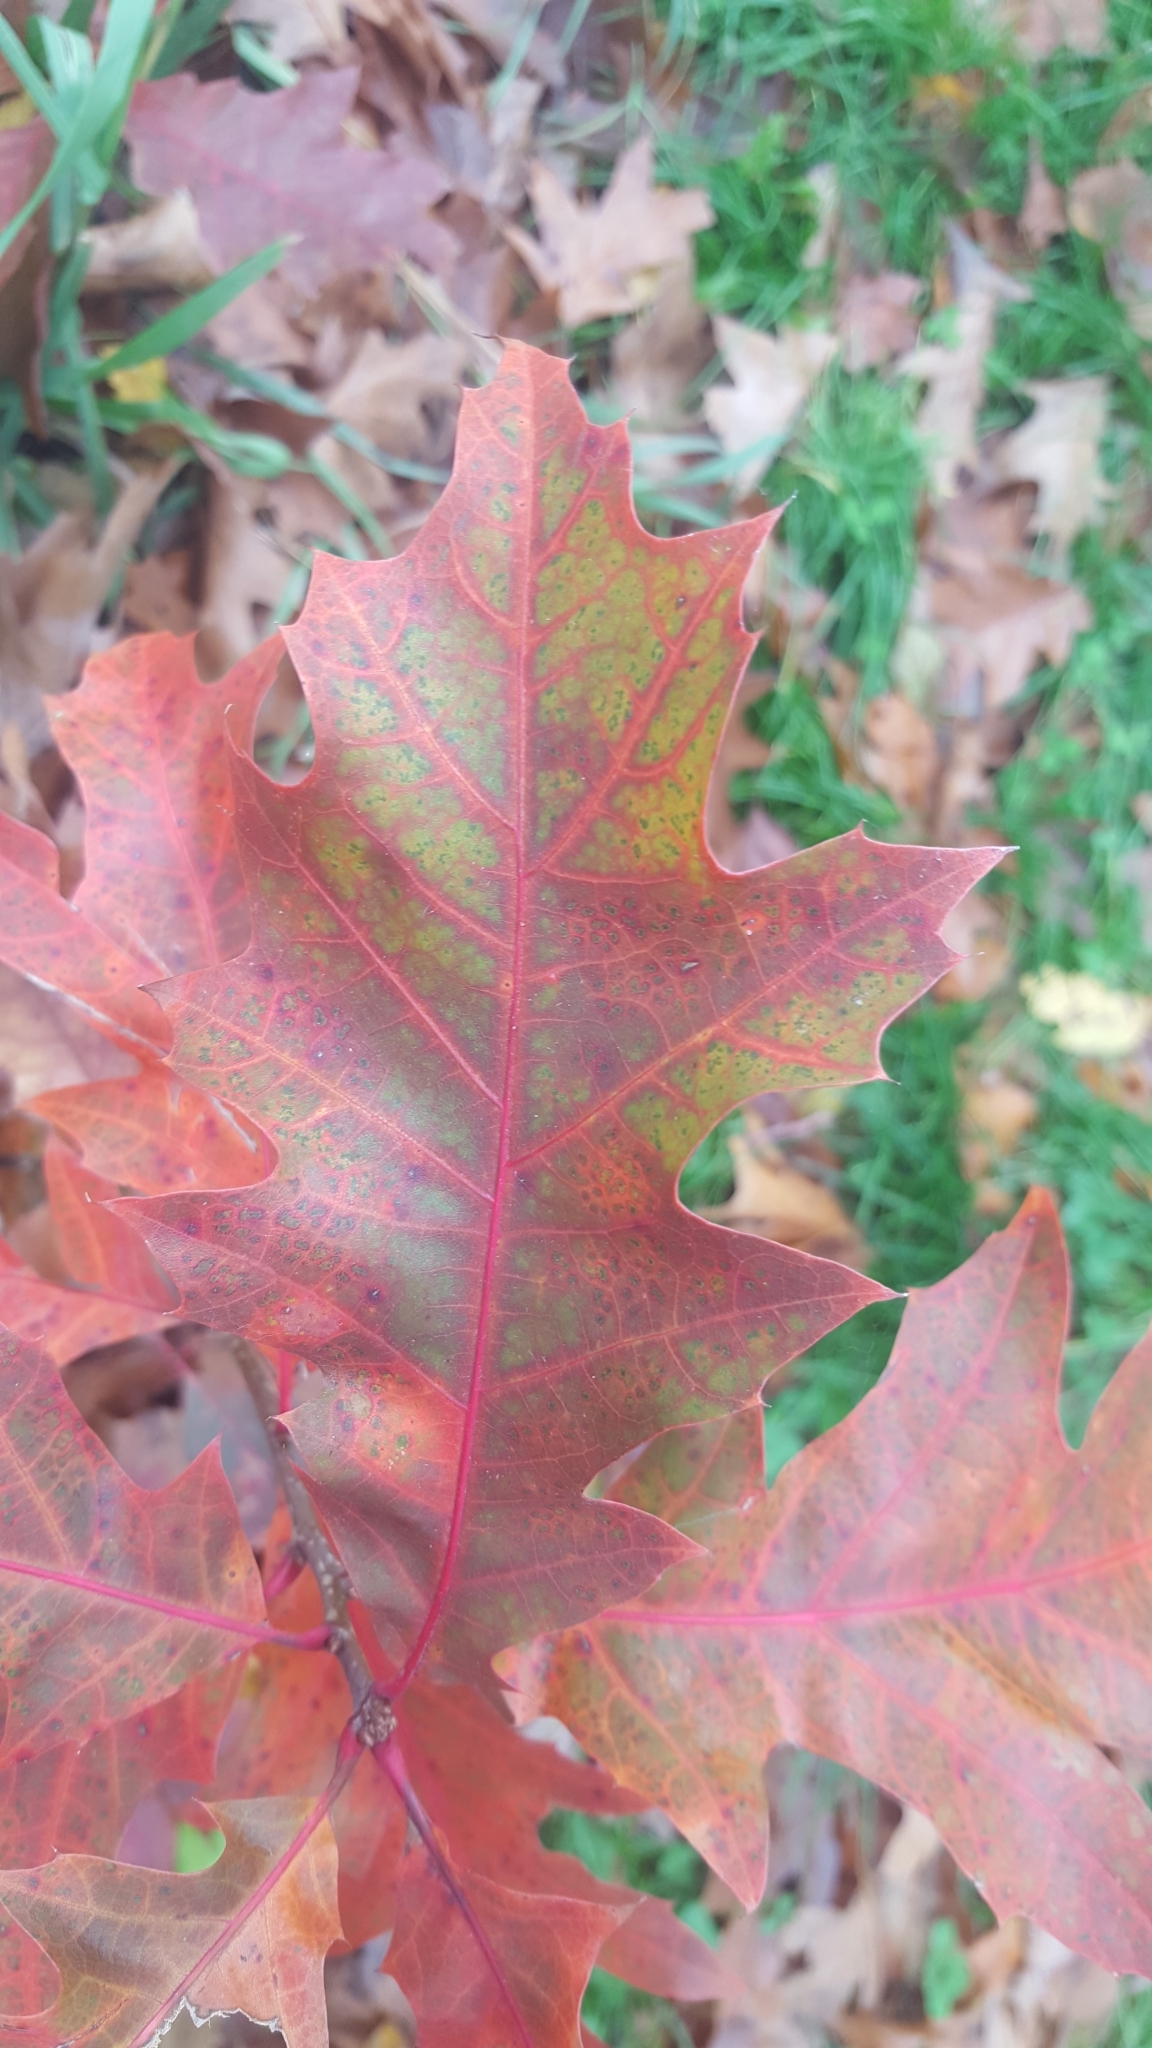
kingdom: Plantae
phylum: Tracheophyta
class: Magnoliopsida
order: Fagales
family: Fagaceae
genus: Quercus
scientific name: Quercus rubra
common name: Red oak
